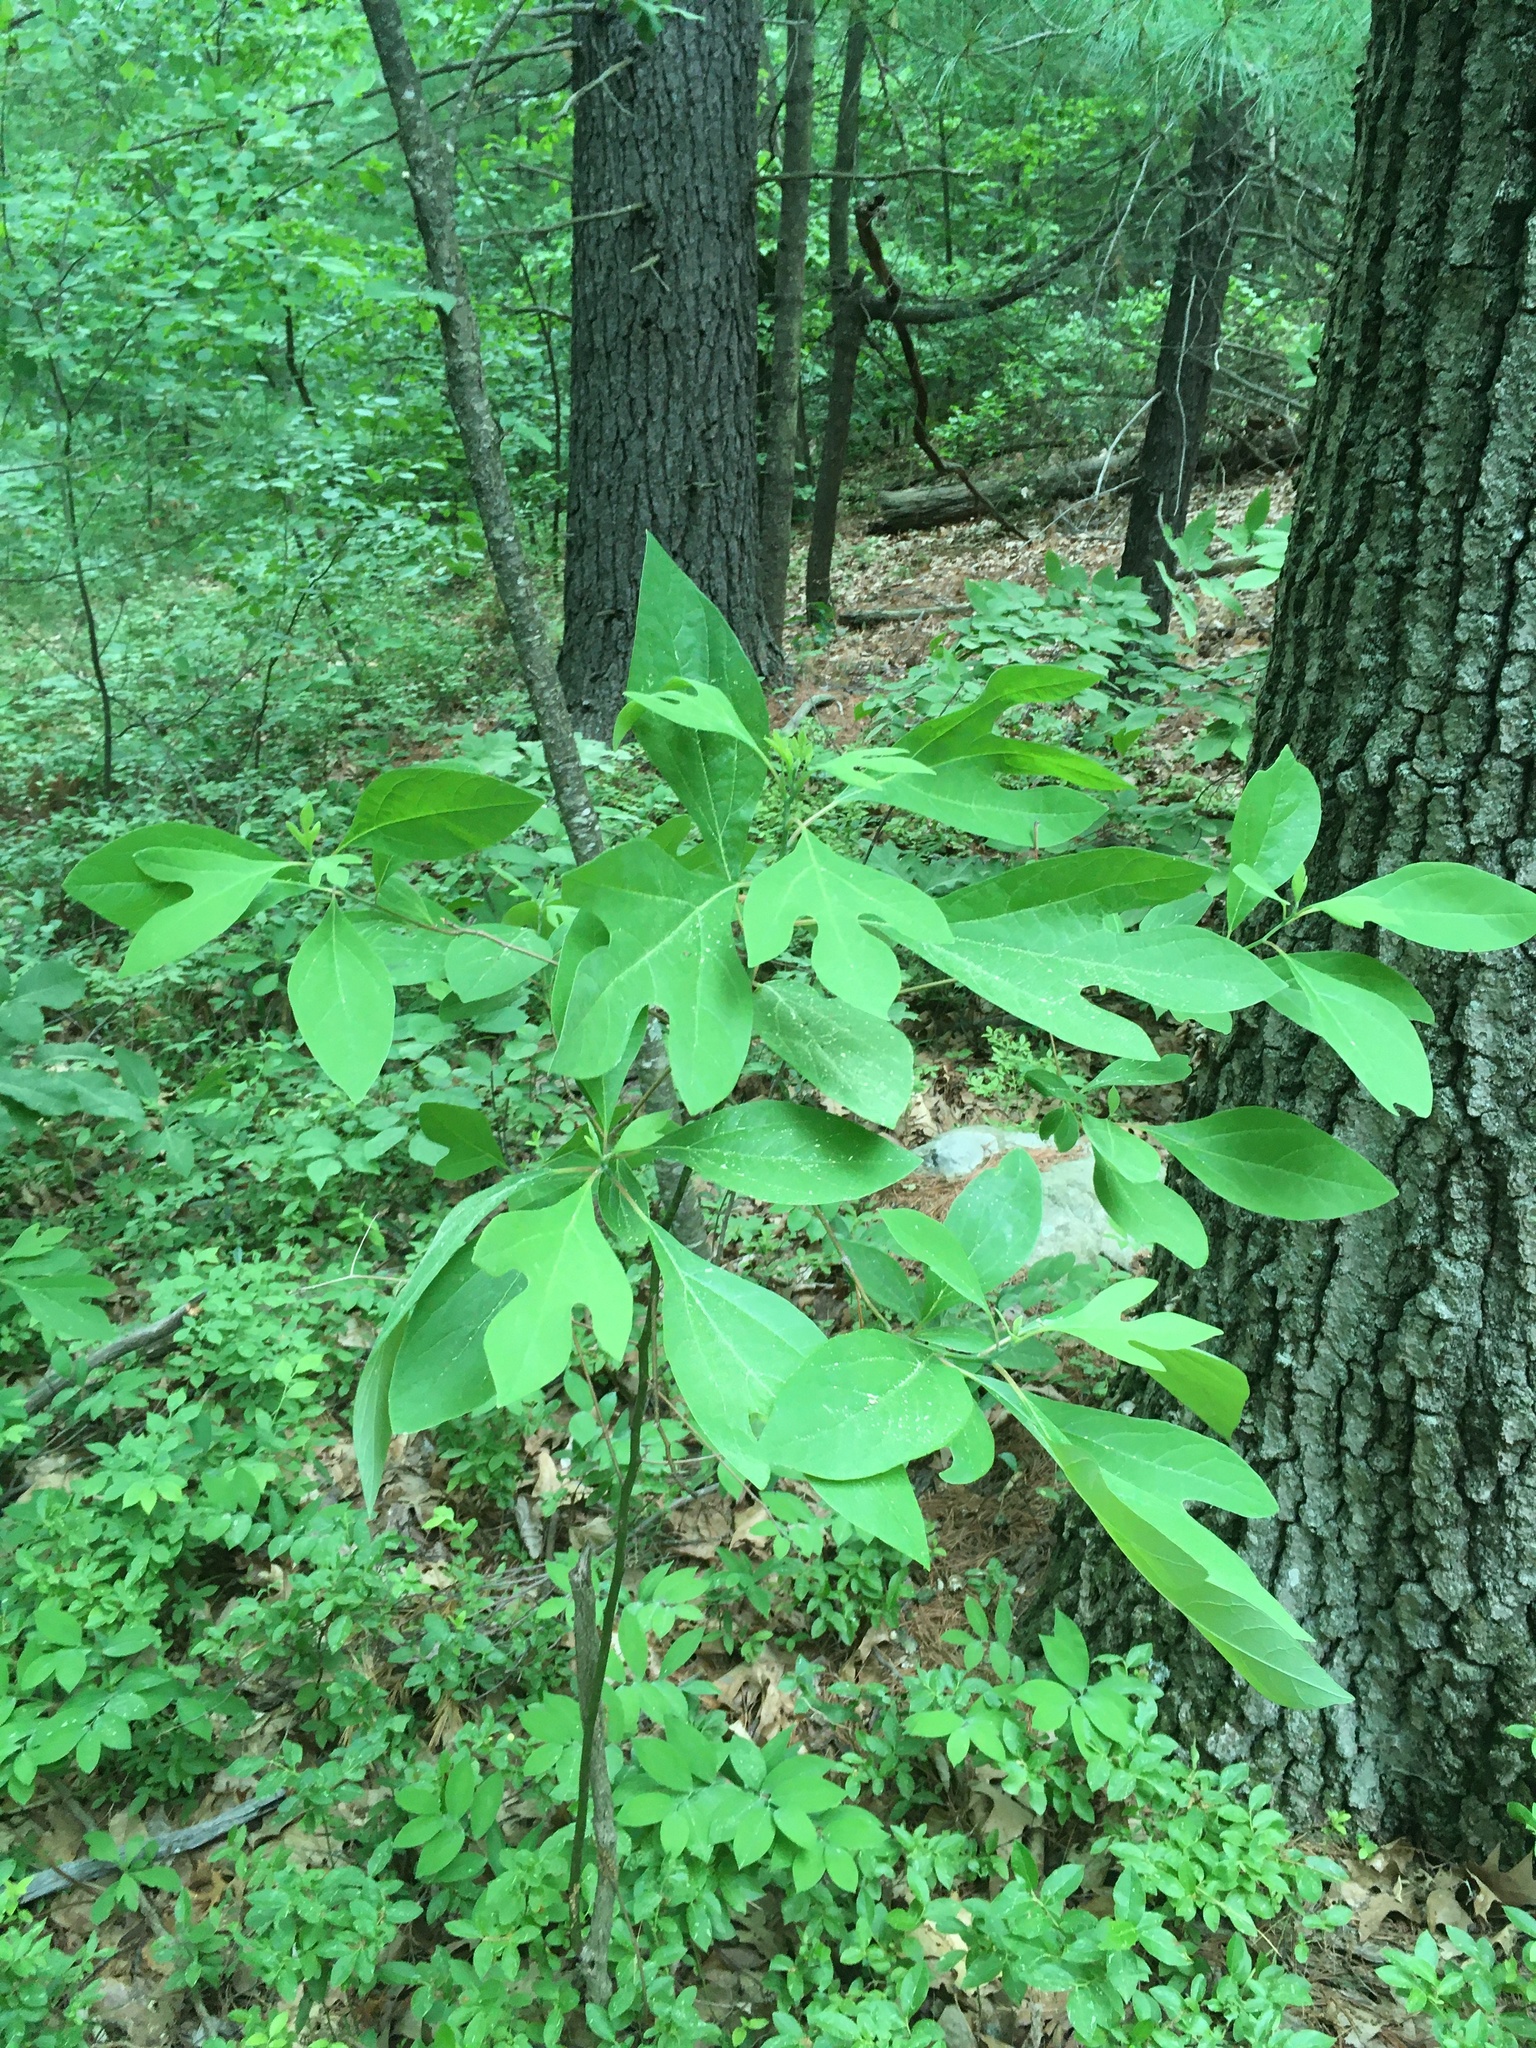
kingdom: Plantae
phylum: Tracheophyta
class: Magnoliopsida
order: Laurales
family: Lauraceae
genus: Sassafras
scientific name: Sassafras albidum
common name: Sassafras
